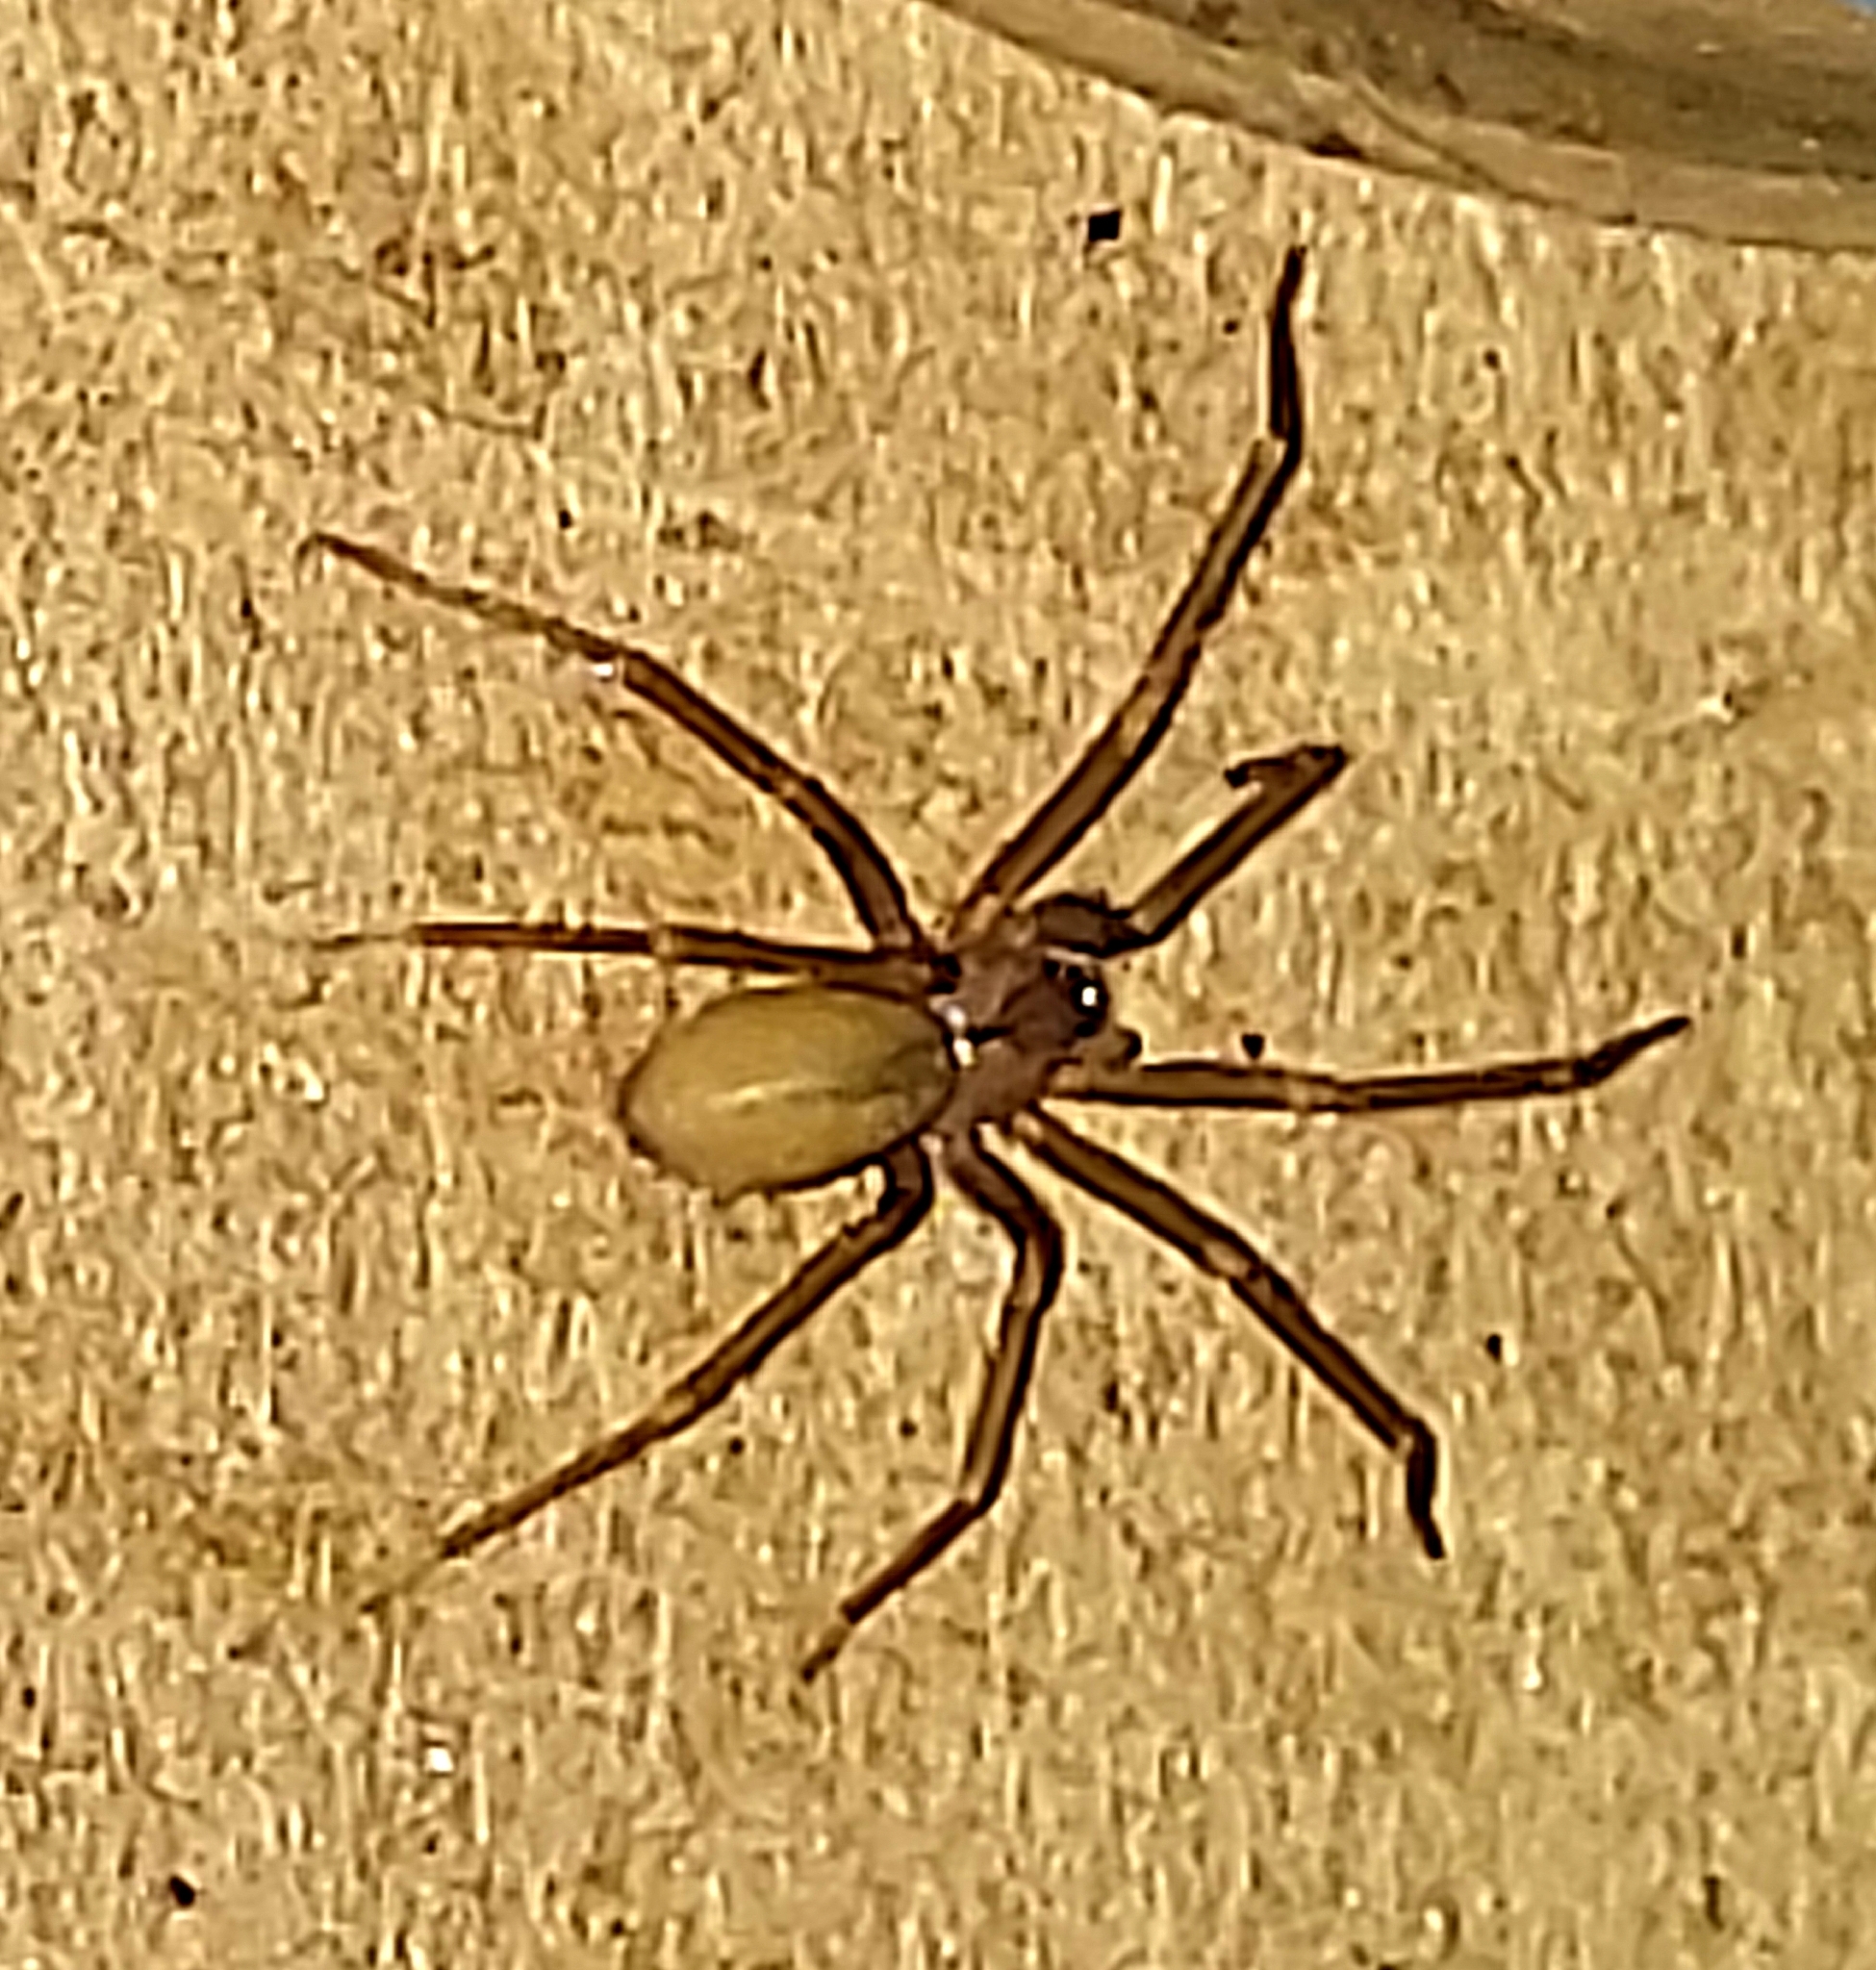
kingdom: Animalia
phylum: Arthropoda
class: Arachnida
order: Araneae
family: Sicariidae
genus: Loxosceles
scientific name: Loxosceles reclusa
